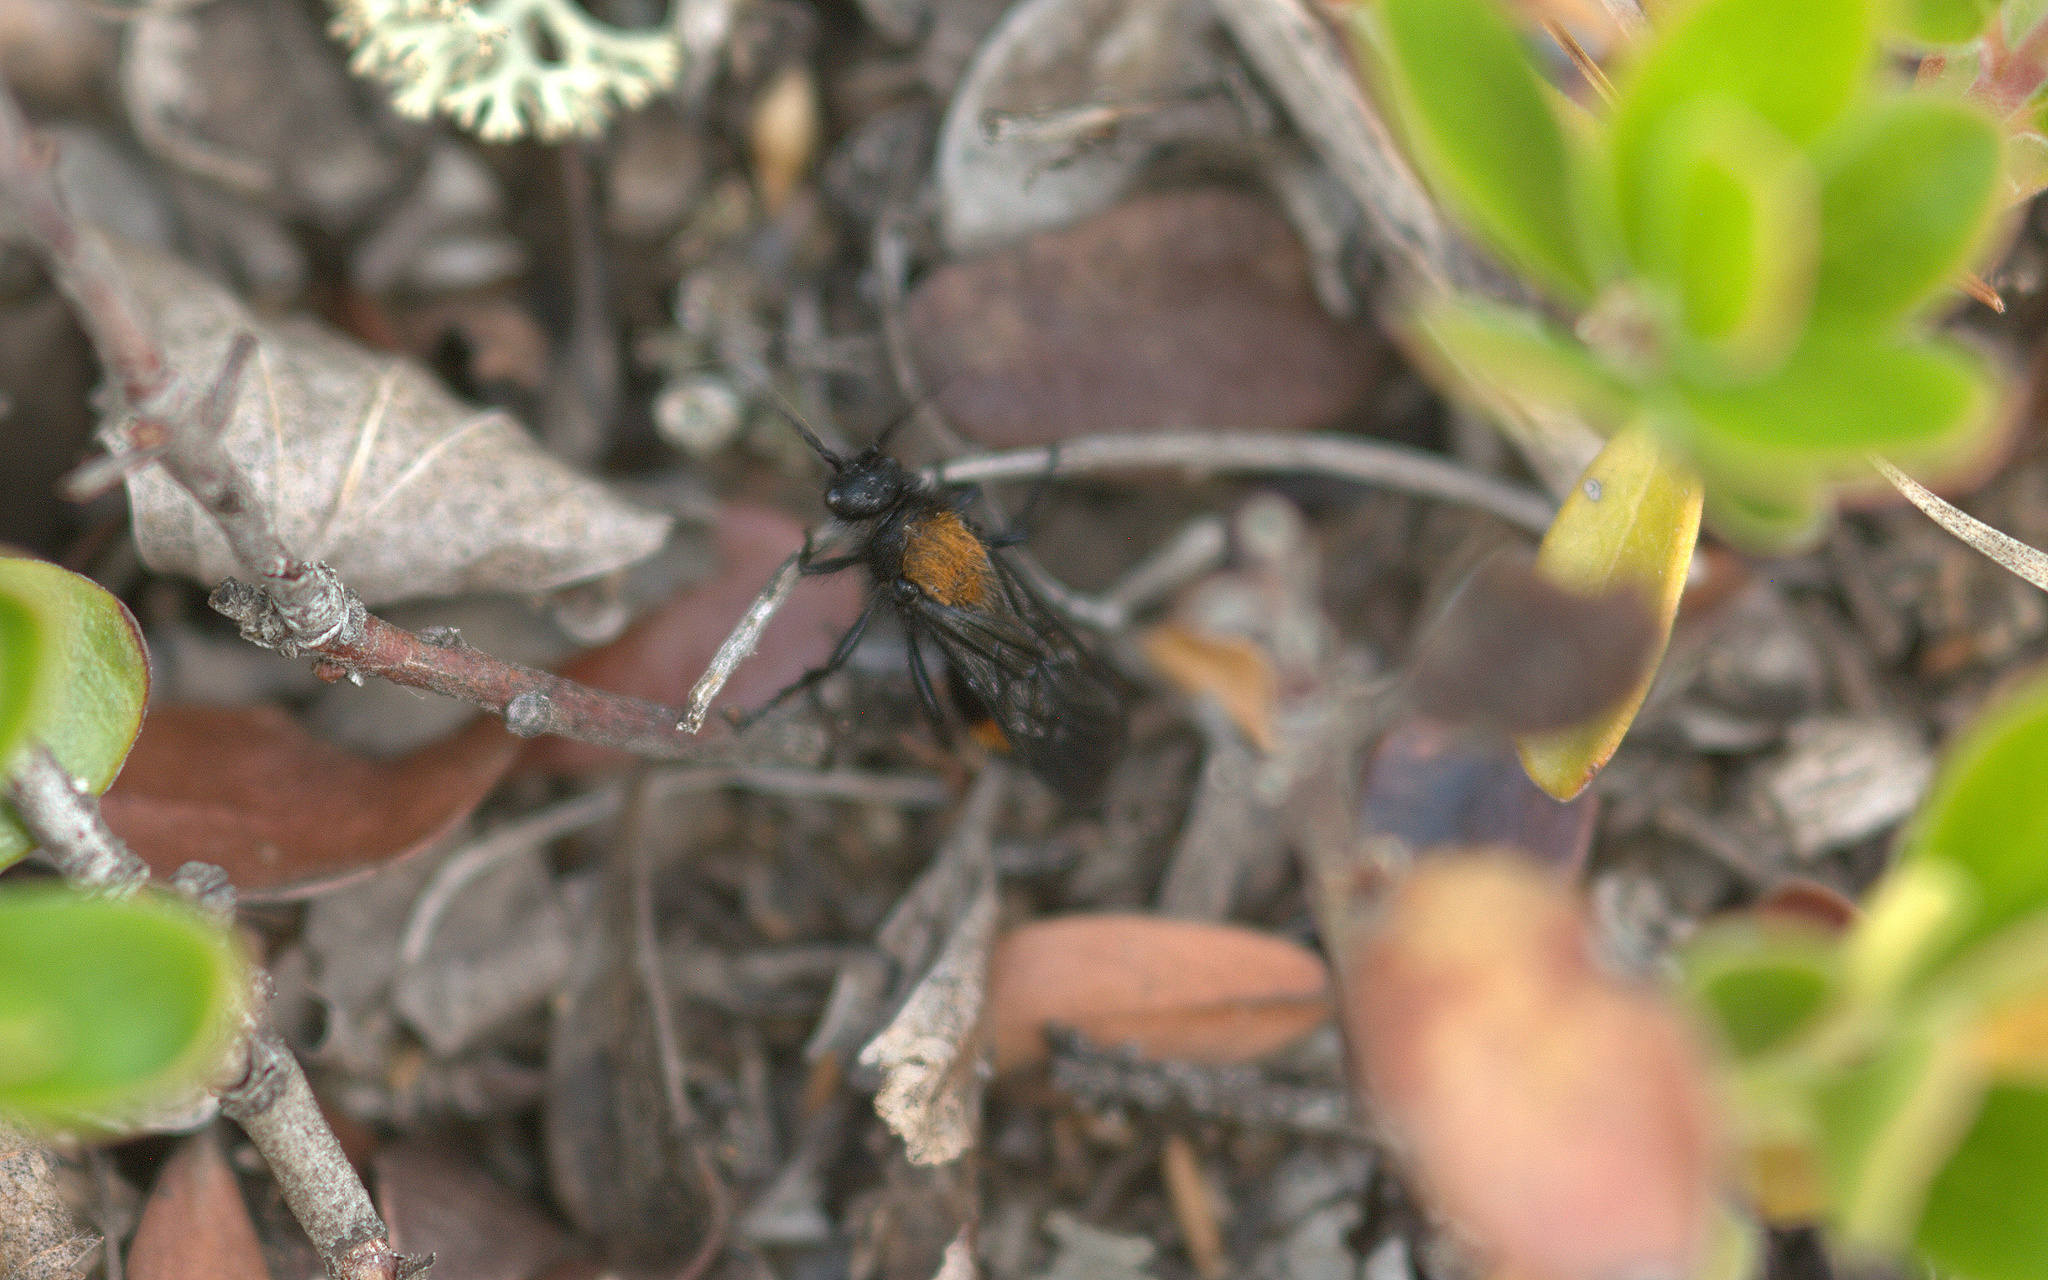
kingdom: Animalia
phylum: Arthropoda
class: Insecta
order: Hymenoptera
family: Mutillidae
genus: Dasymutilla
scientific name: Dasymutilla
